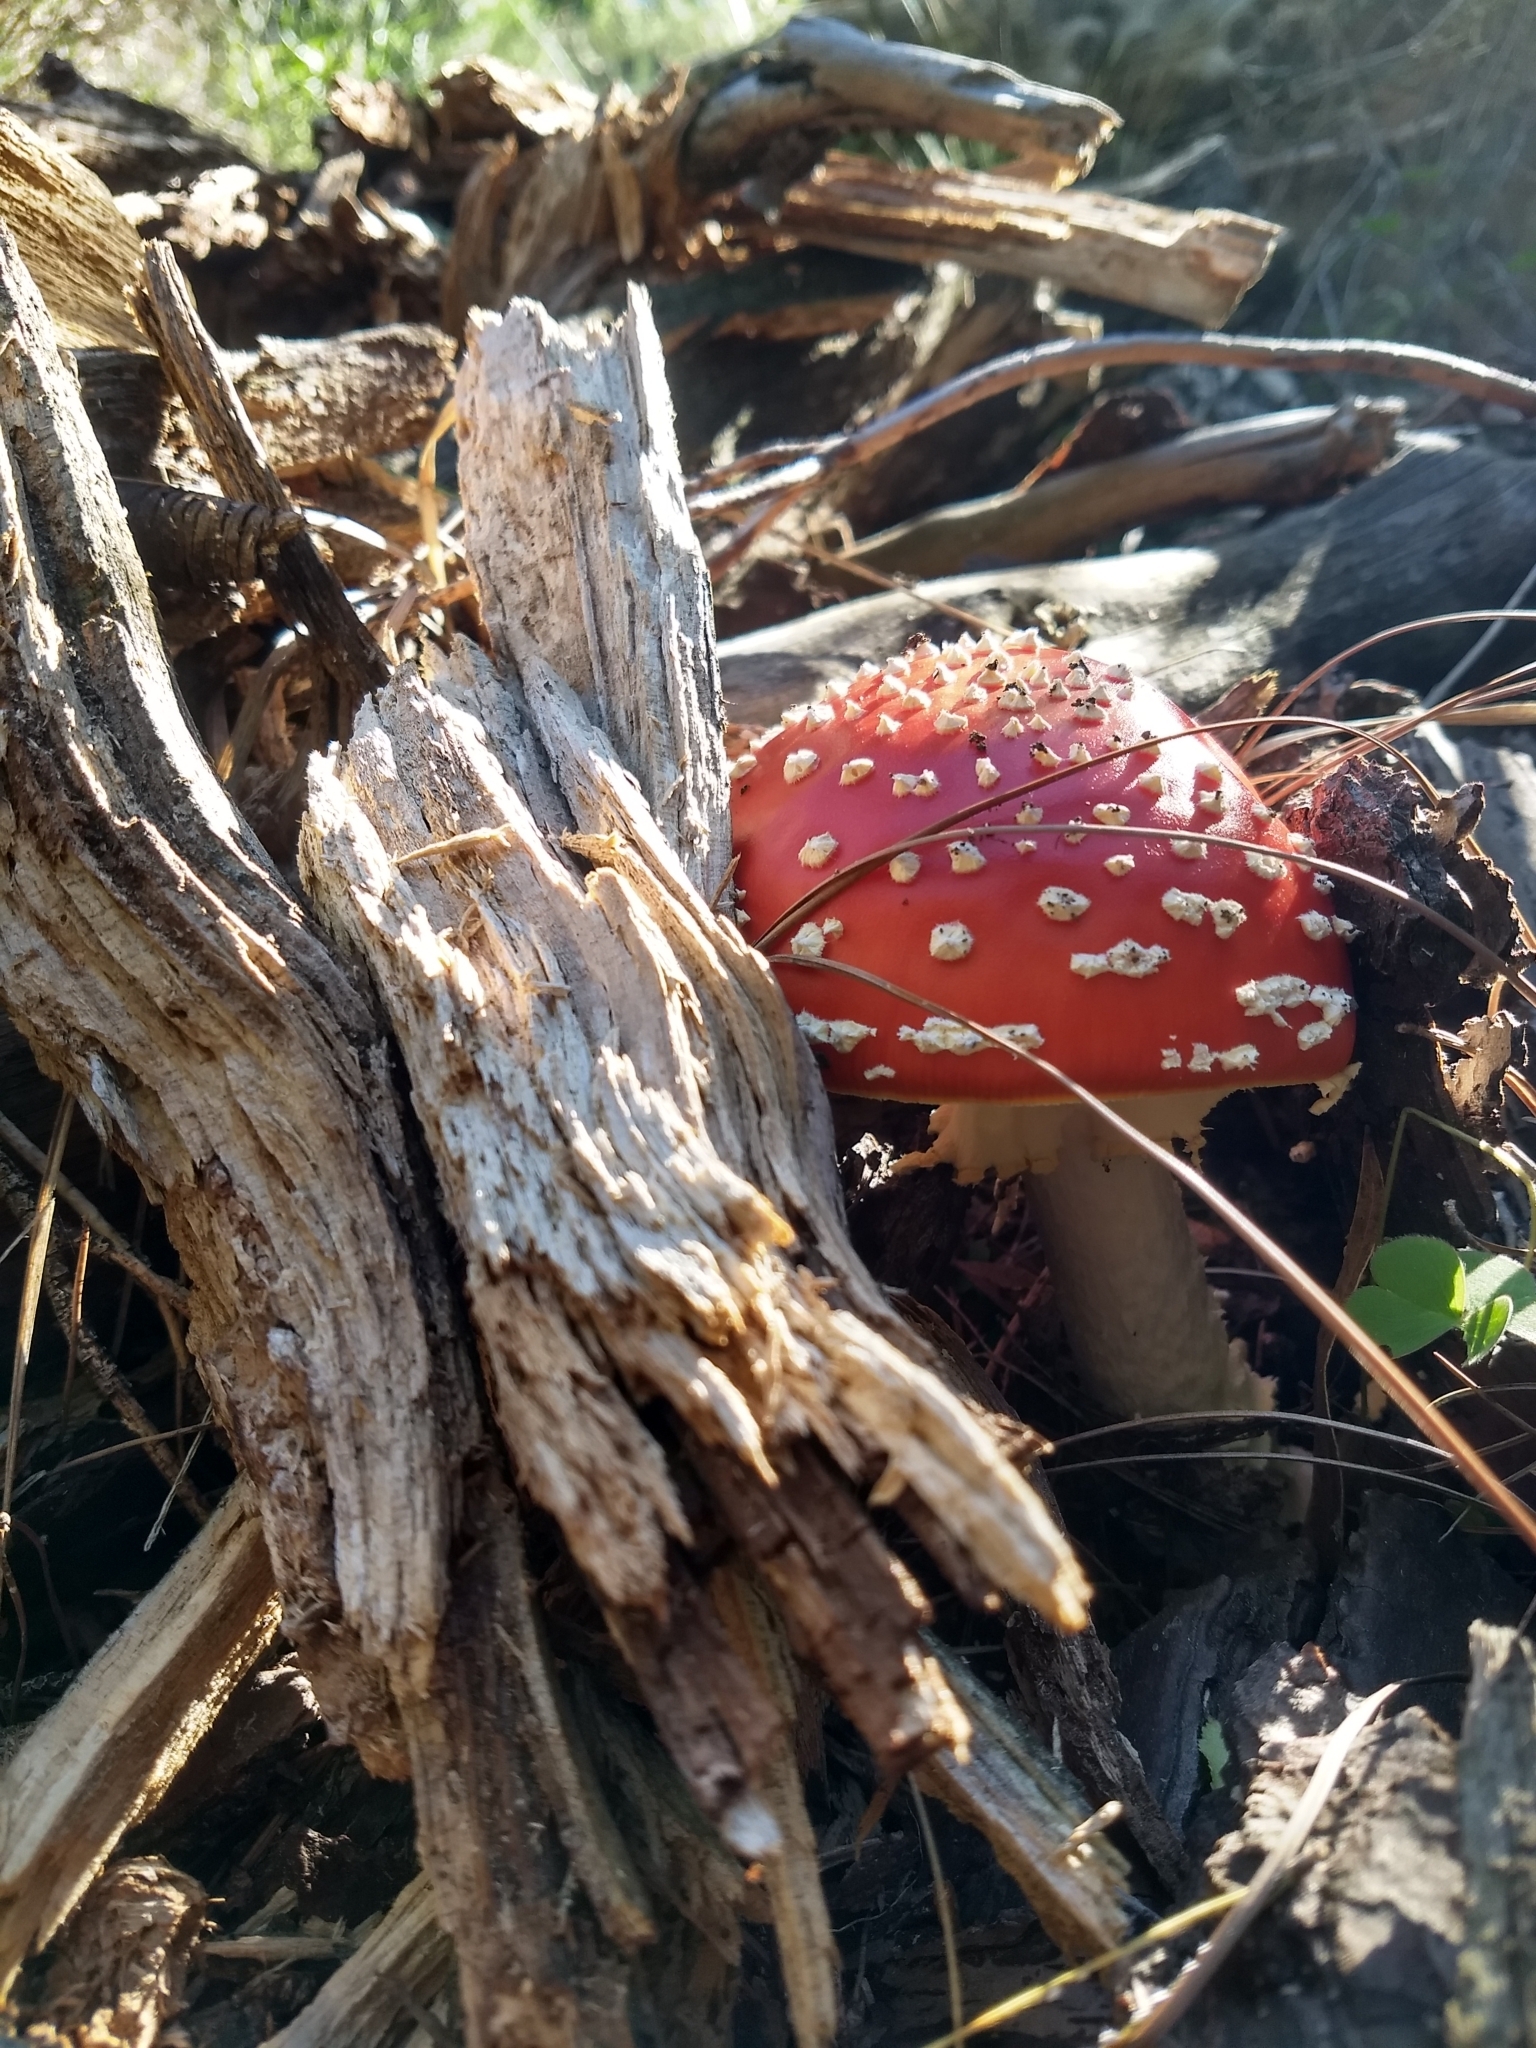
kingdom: Fungi
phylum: Basidiomycota
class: Agaricomycetes
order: Agaricales
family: Amanitaceae
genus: Amanita
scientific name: Amanita muscaria
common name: Fly agaric
